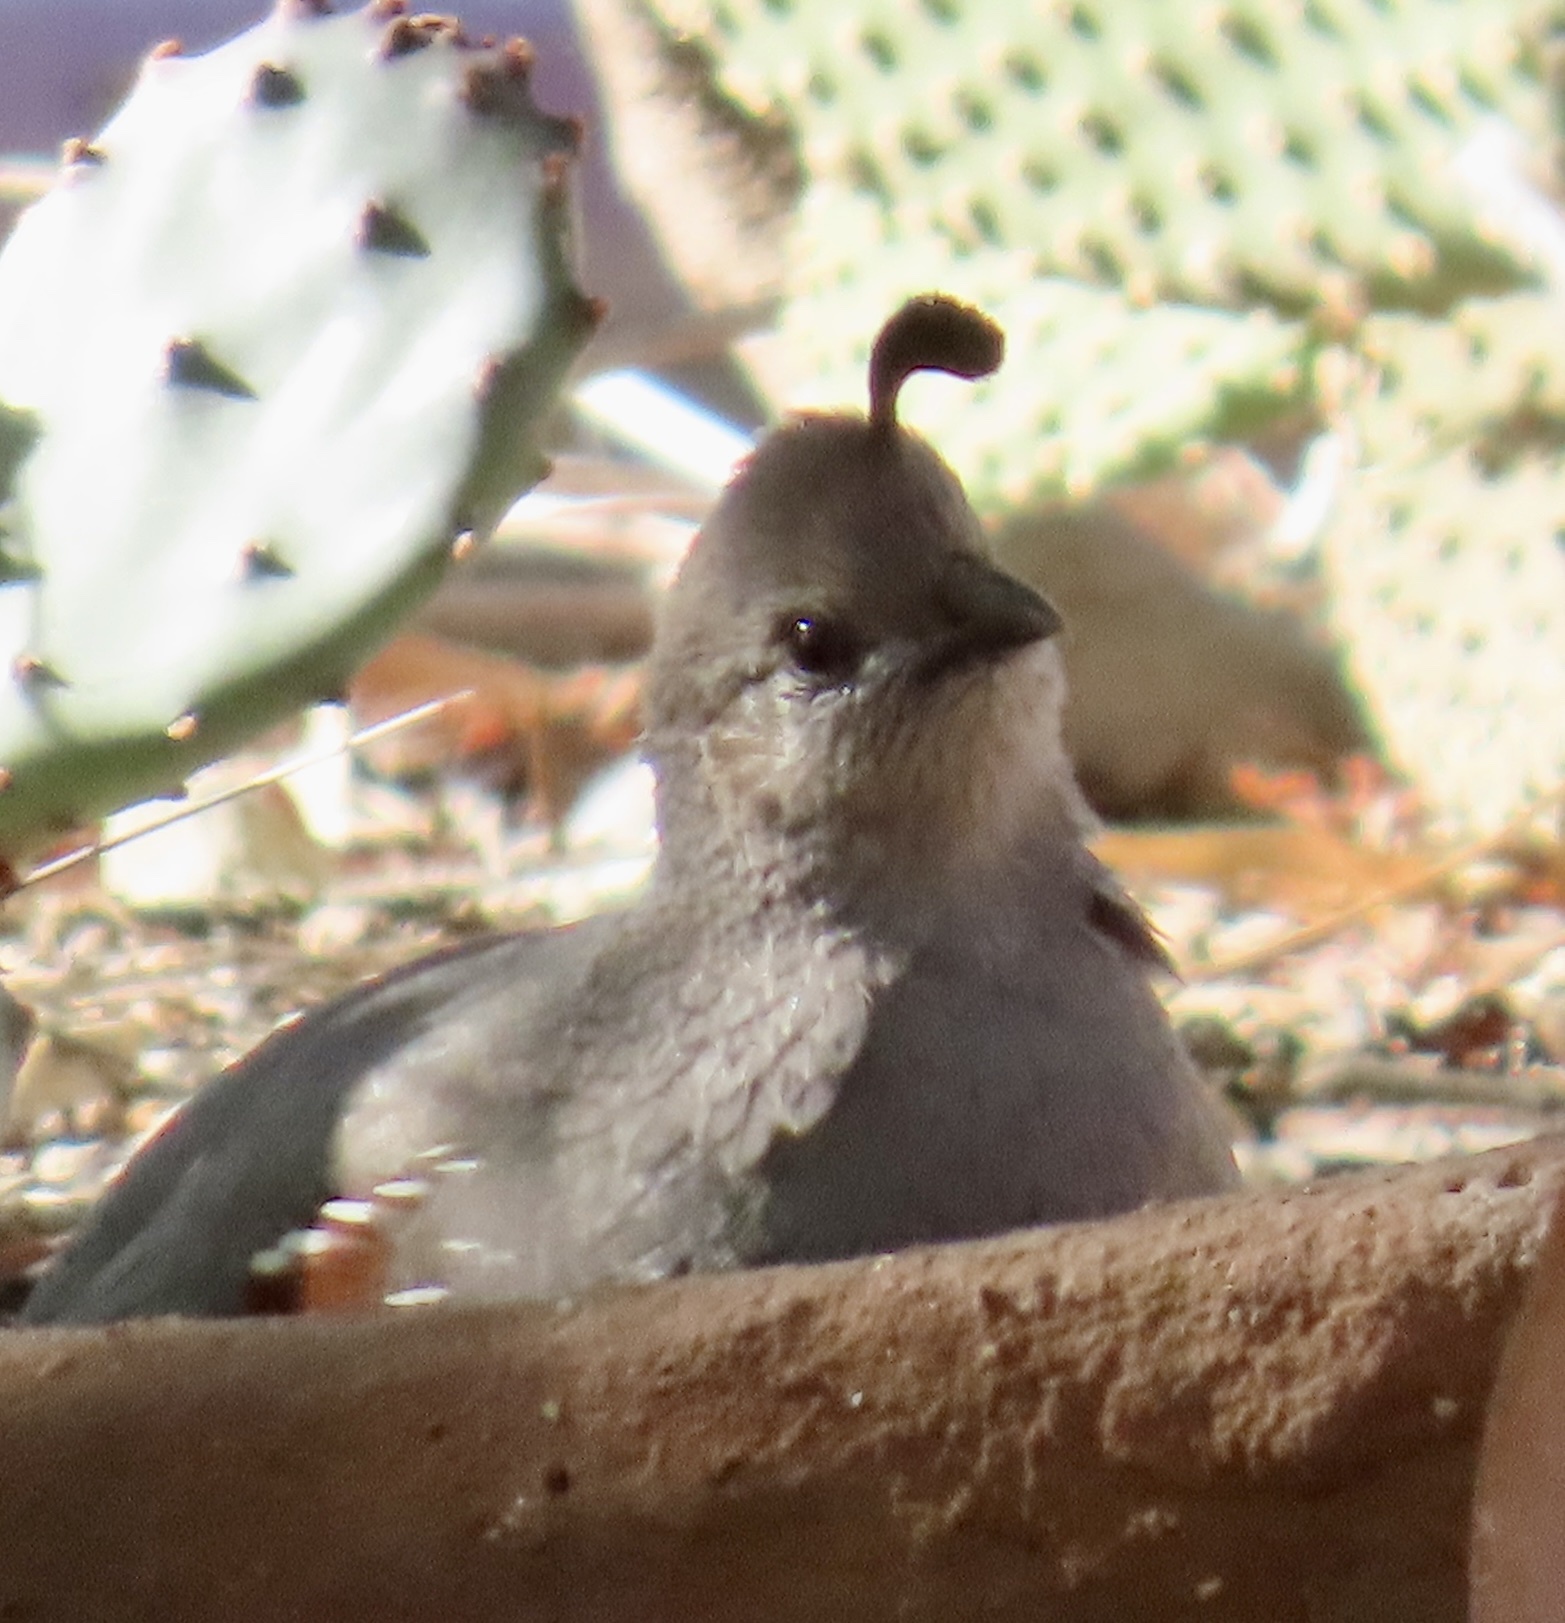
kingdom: Animalia
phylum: Chordata
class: Aves
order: Galliformes
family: Odontophoridae
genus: Callipepla
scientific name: Callipepla gambelii
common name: Gambel's quail
